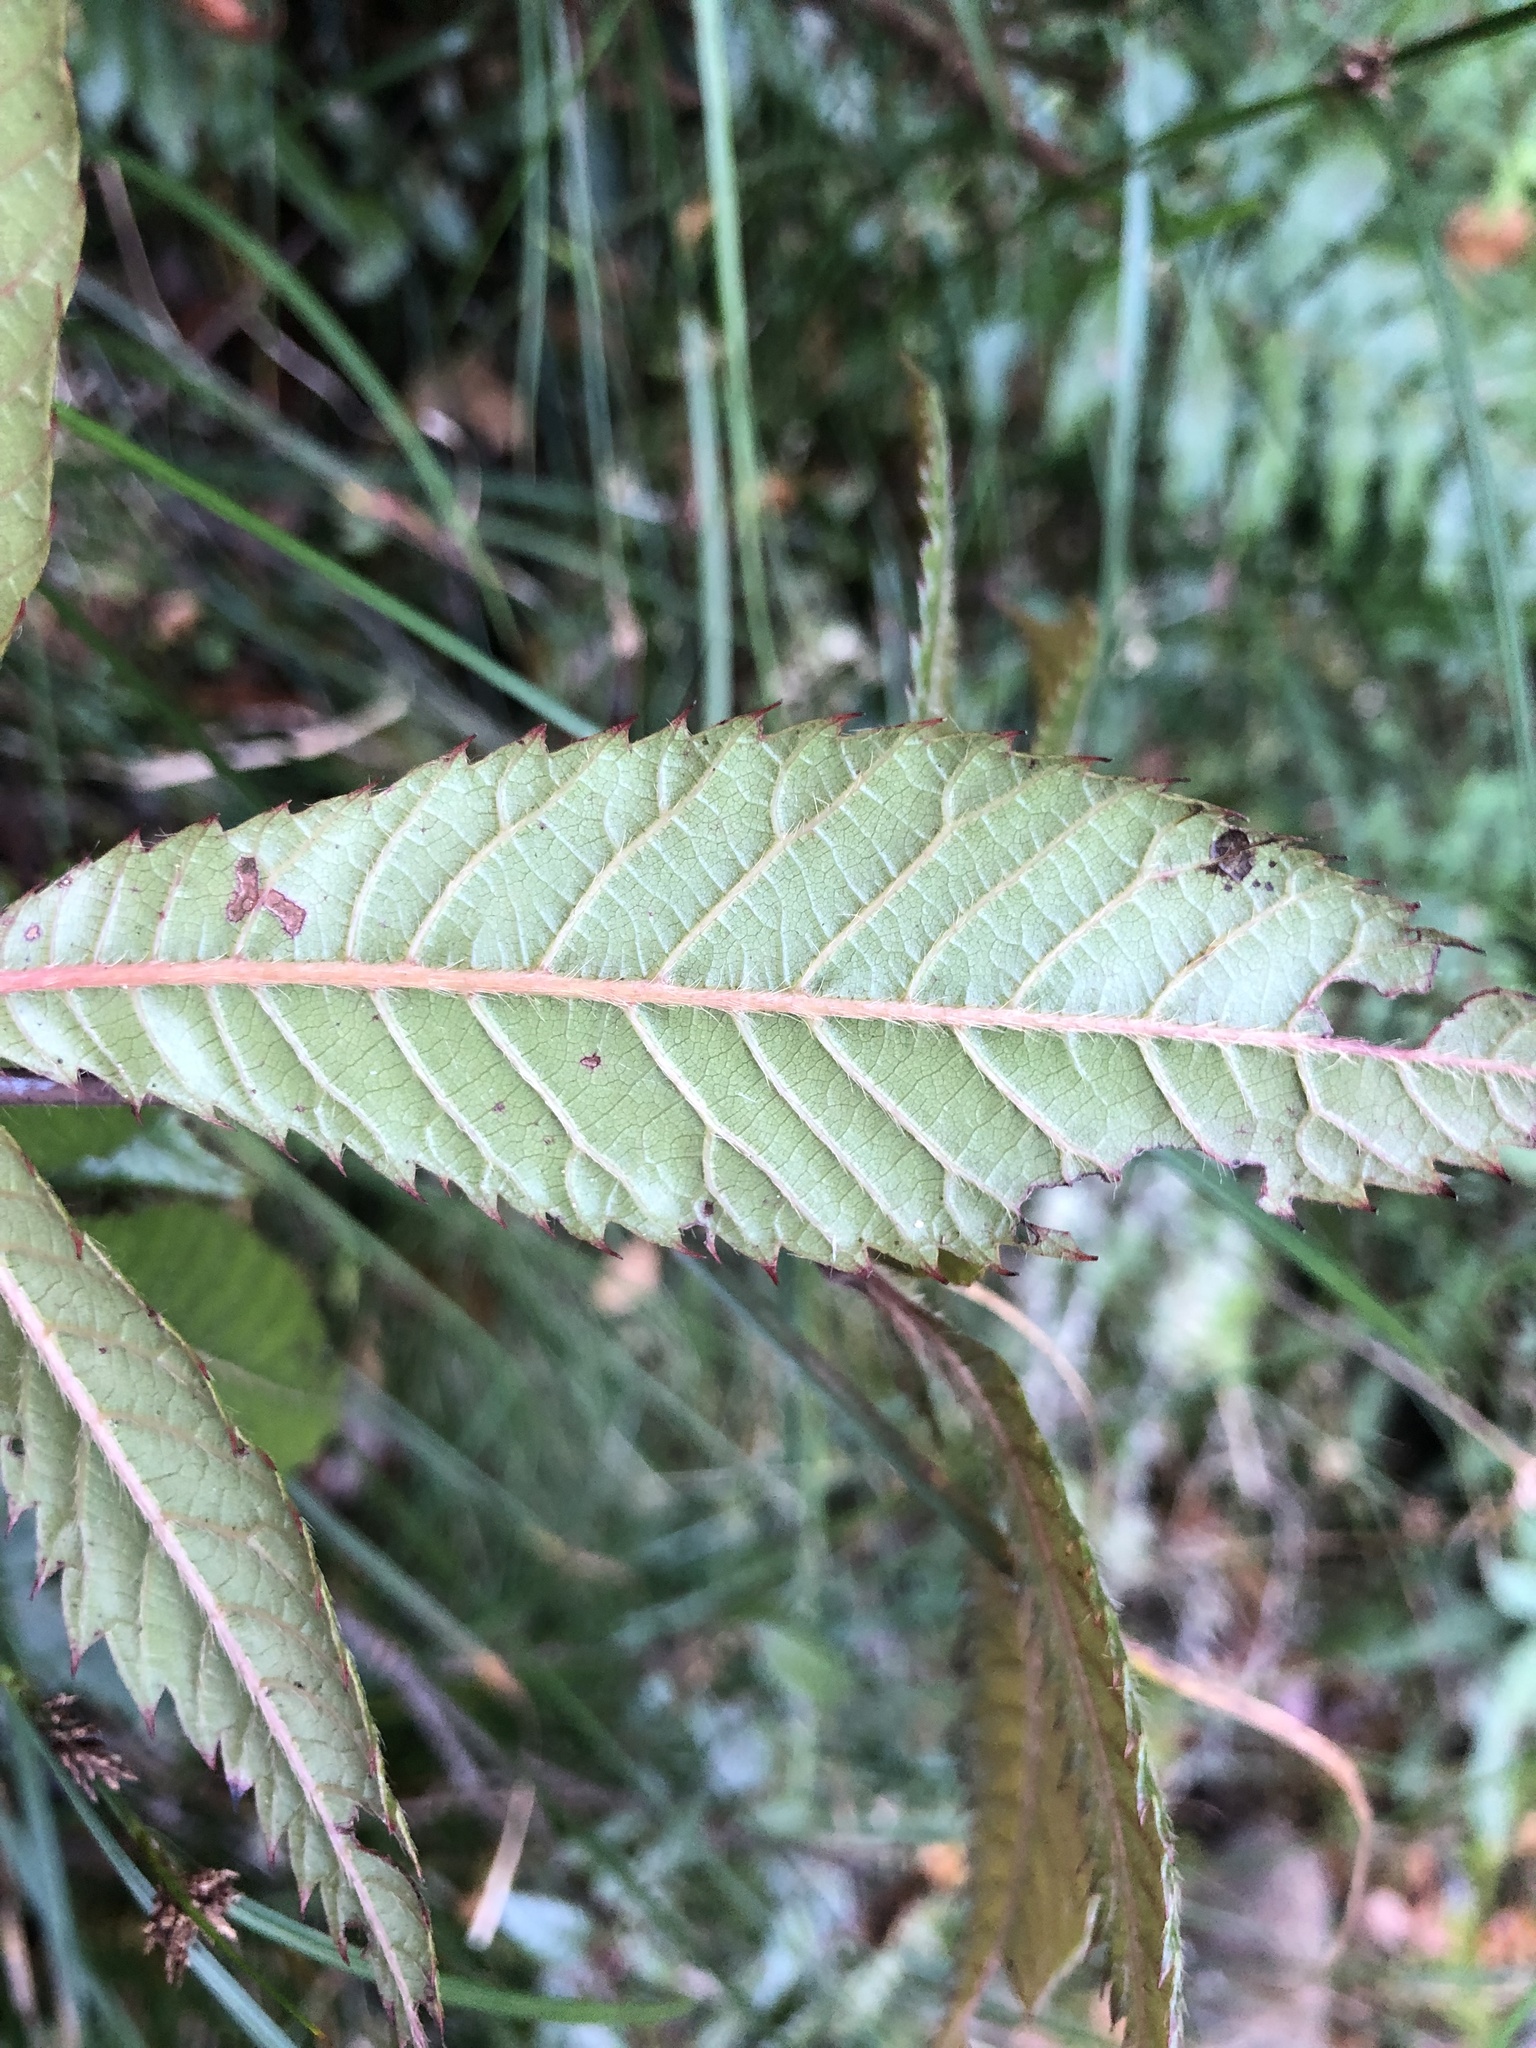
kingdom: Plantae
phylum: Tracheophyta
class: Magnoliopsida
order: Oxalidales
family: Cunoniaceae
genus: Vesselowskya
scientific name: Vesselowskya rubifolia
